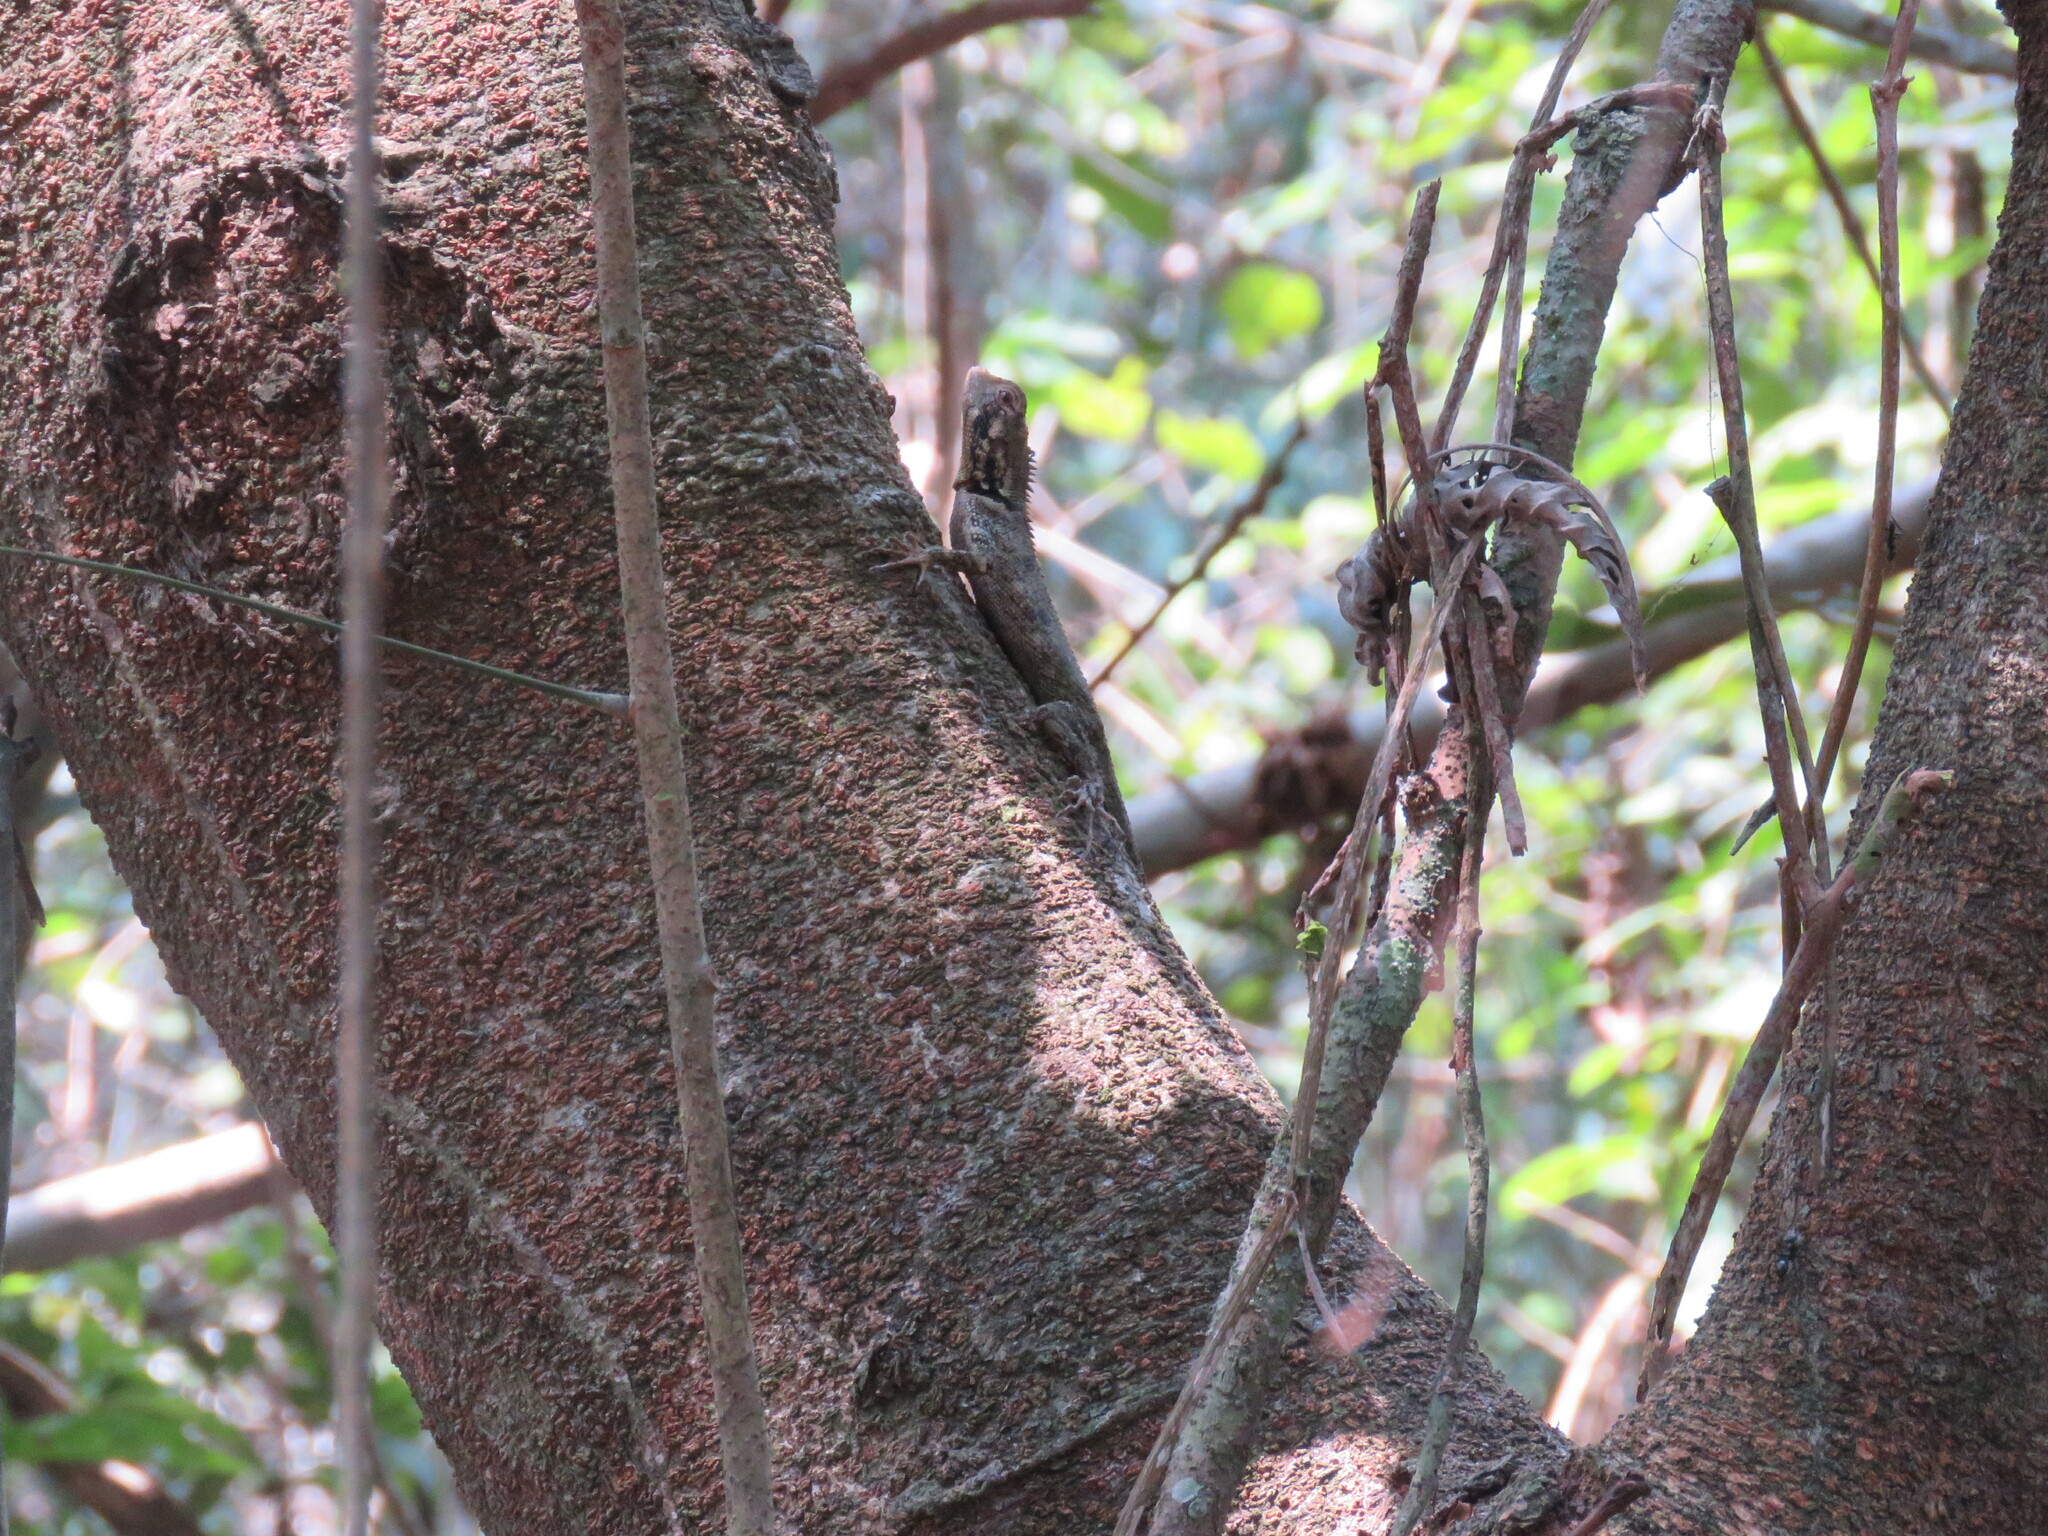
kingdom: Animalia
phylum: Chordata
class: Squamata
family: Tropiduridae
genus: Plica
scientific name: Plica umbra
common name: Harlequin racerunner
